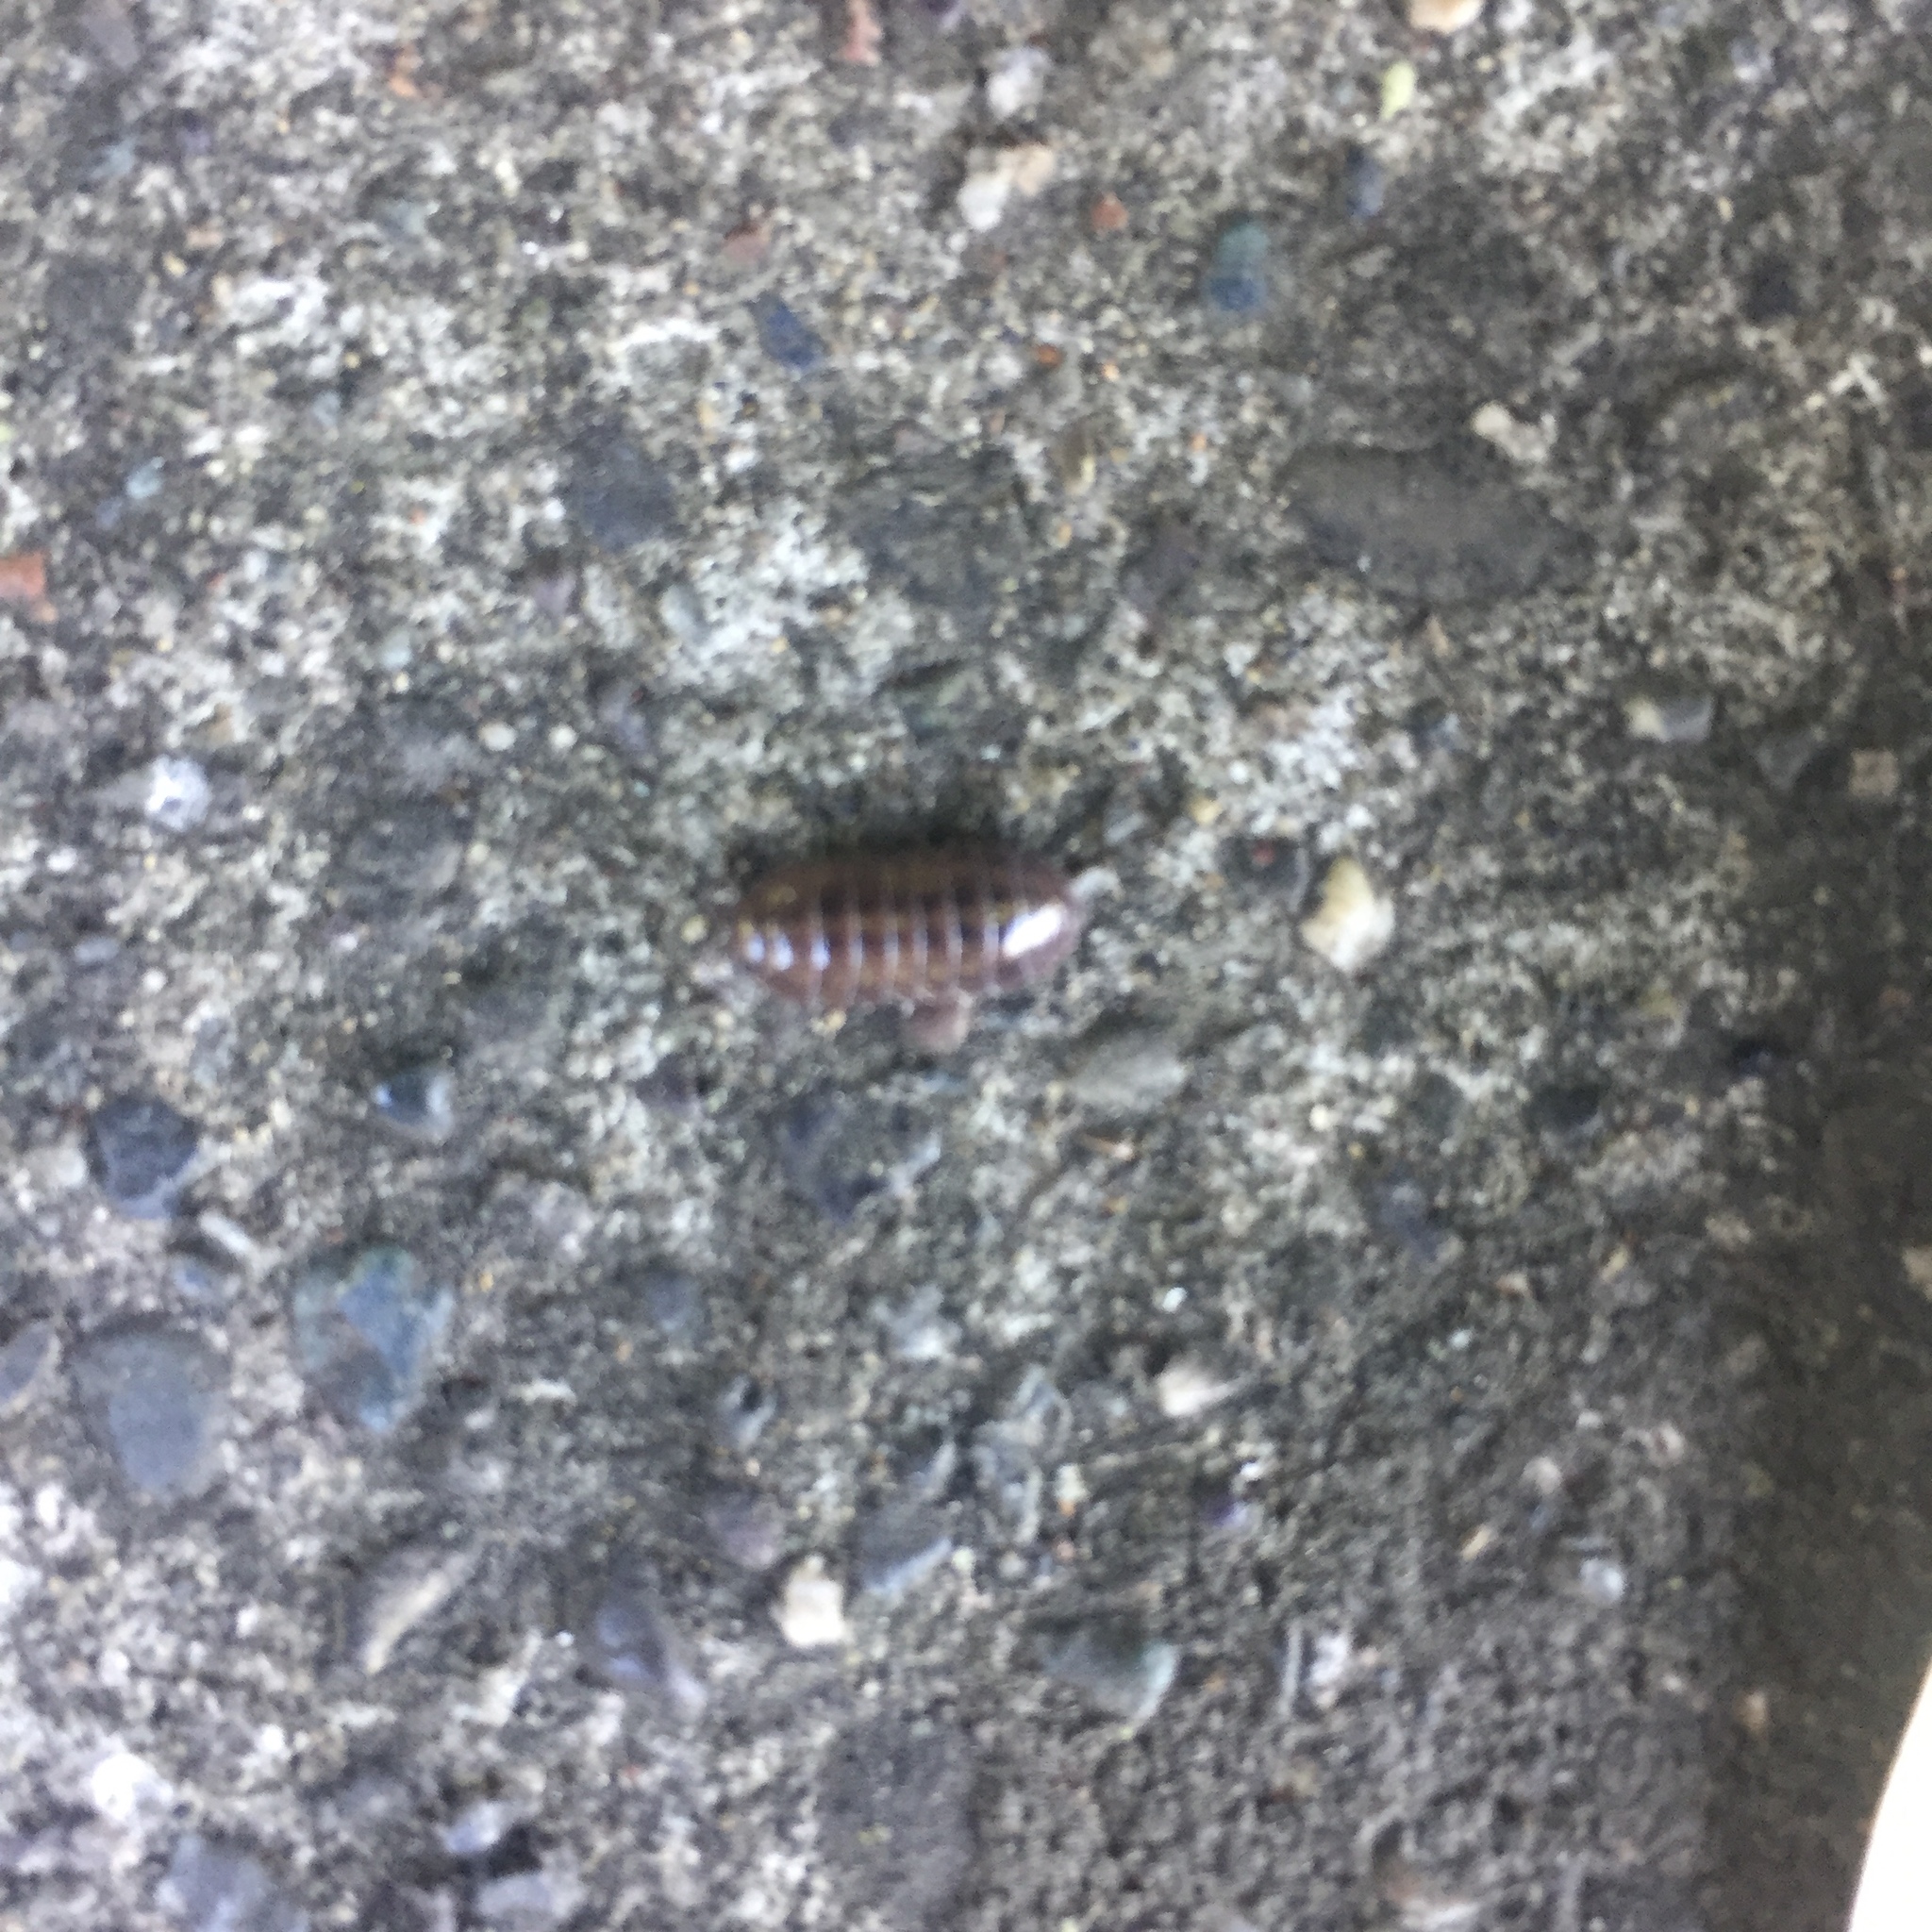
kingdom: Animalia
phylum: Arthropoda
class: Malacostraca
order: Isopoda
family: Armadillidiidae
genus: Armadillidium
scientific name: Armadillidium vulgare
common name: Common pill woodlouse
